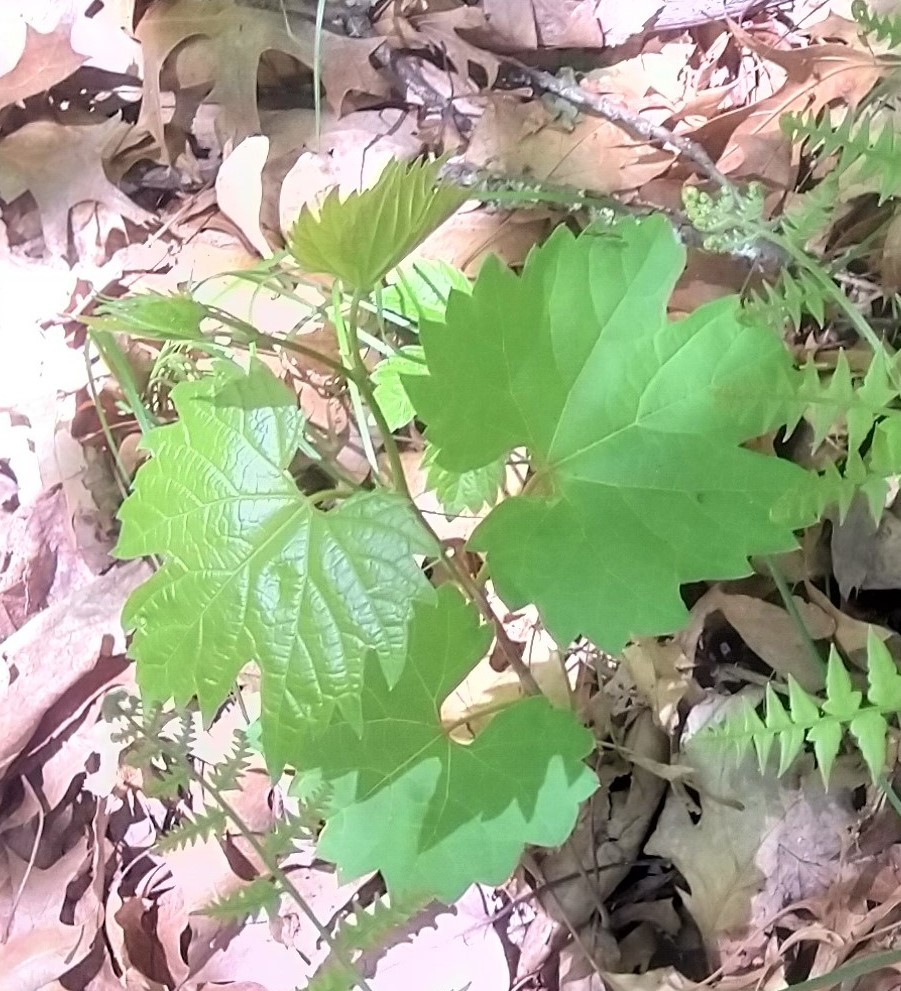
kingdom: Plantae
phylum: Tracheophyta
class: Magnoliopsida
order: Vitales
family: Vitaceae
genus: Vitis
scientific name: Vitis riparia
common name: Frost grape
